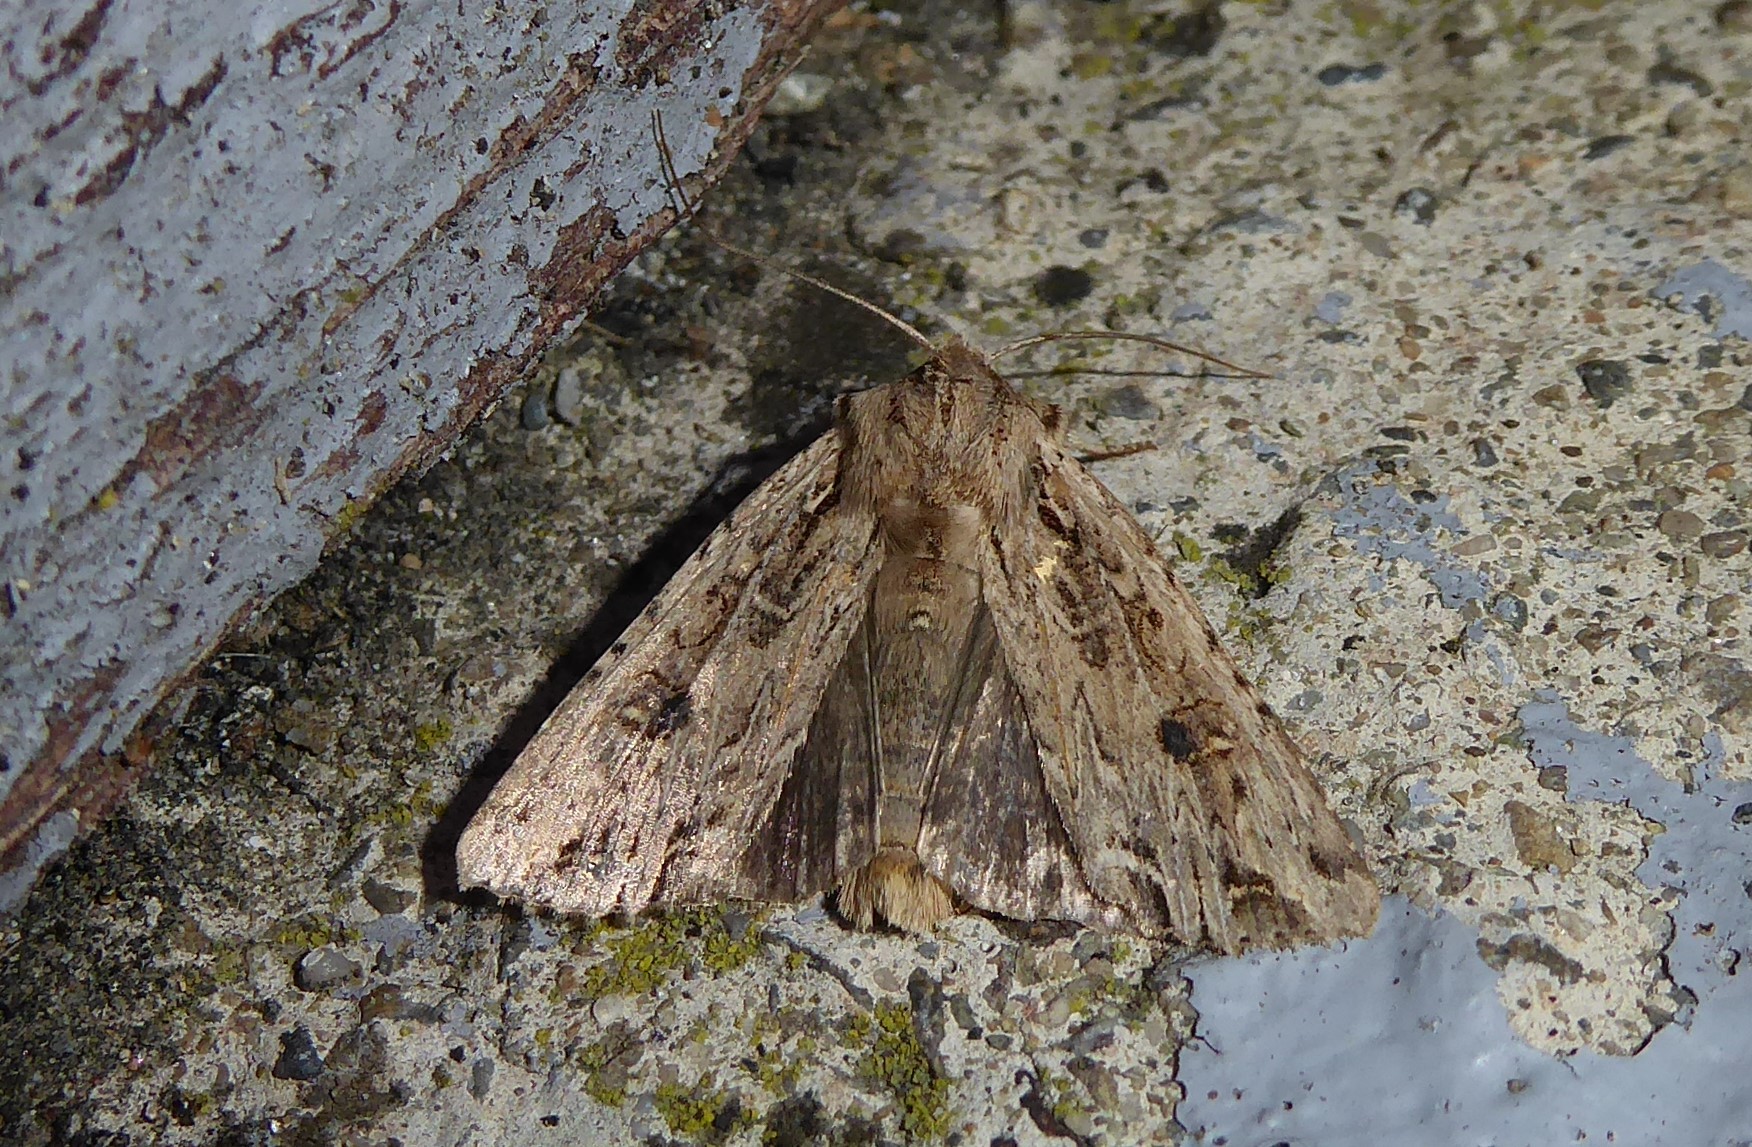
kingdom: Animalia
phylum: Arthropoda
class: Insecta
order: Lepidoptera
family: Noctuidae
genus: Ichneutica
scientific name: Ichneutica lignana
